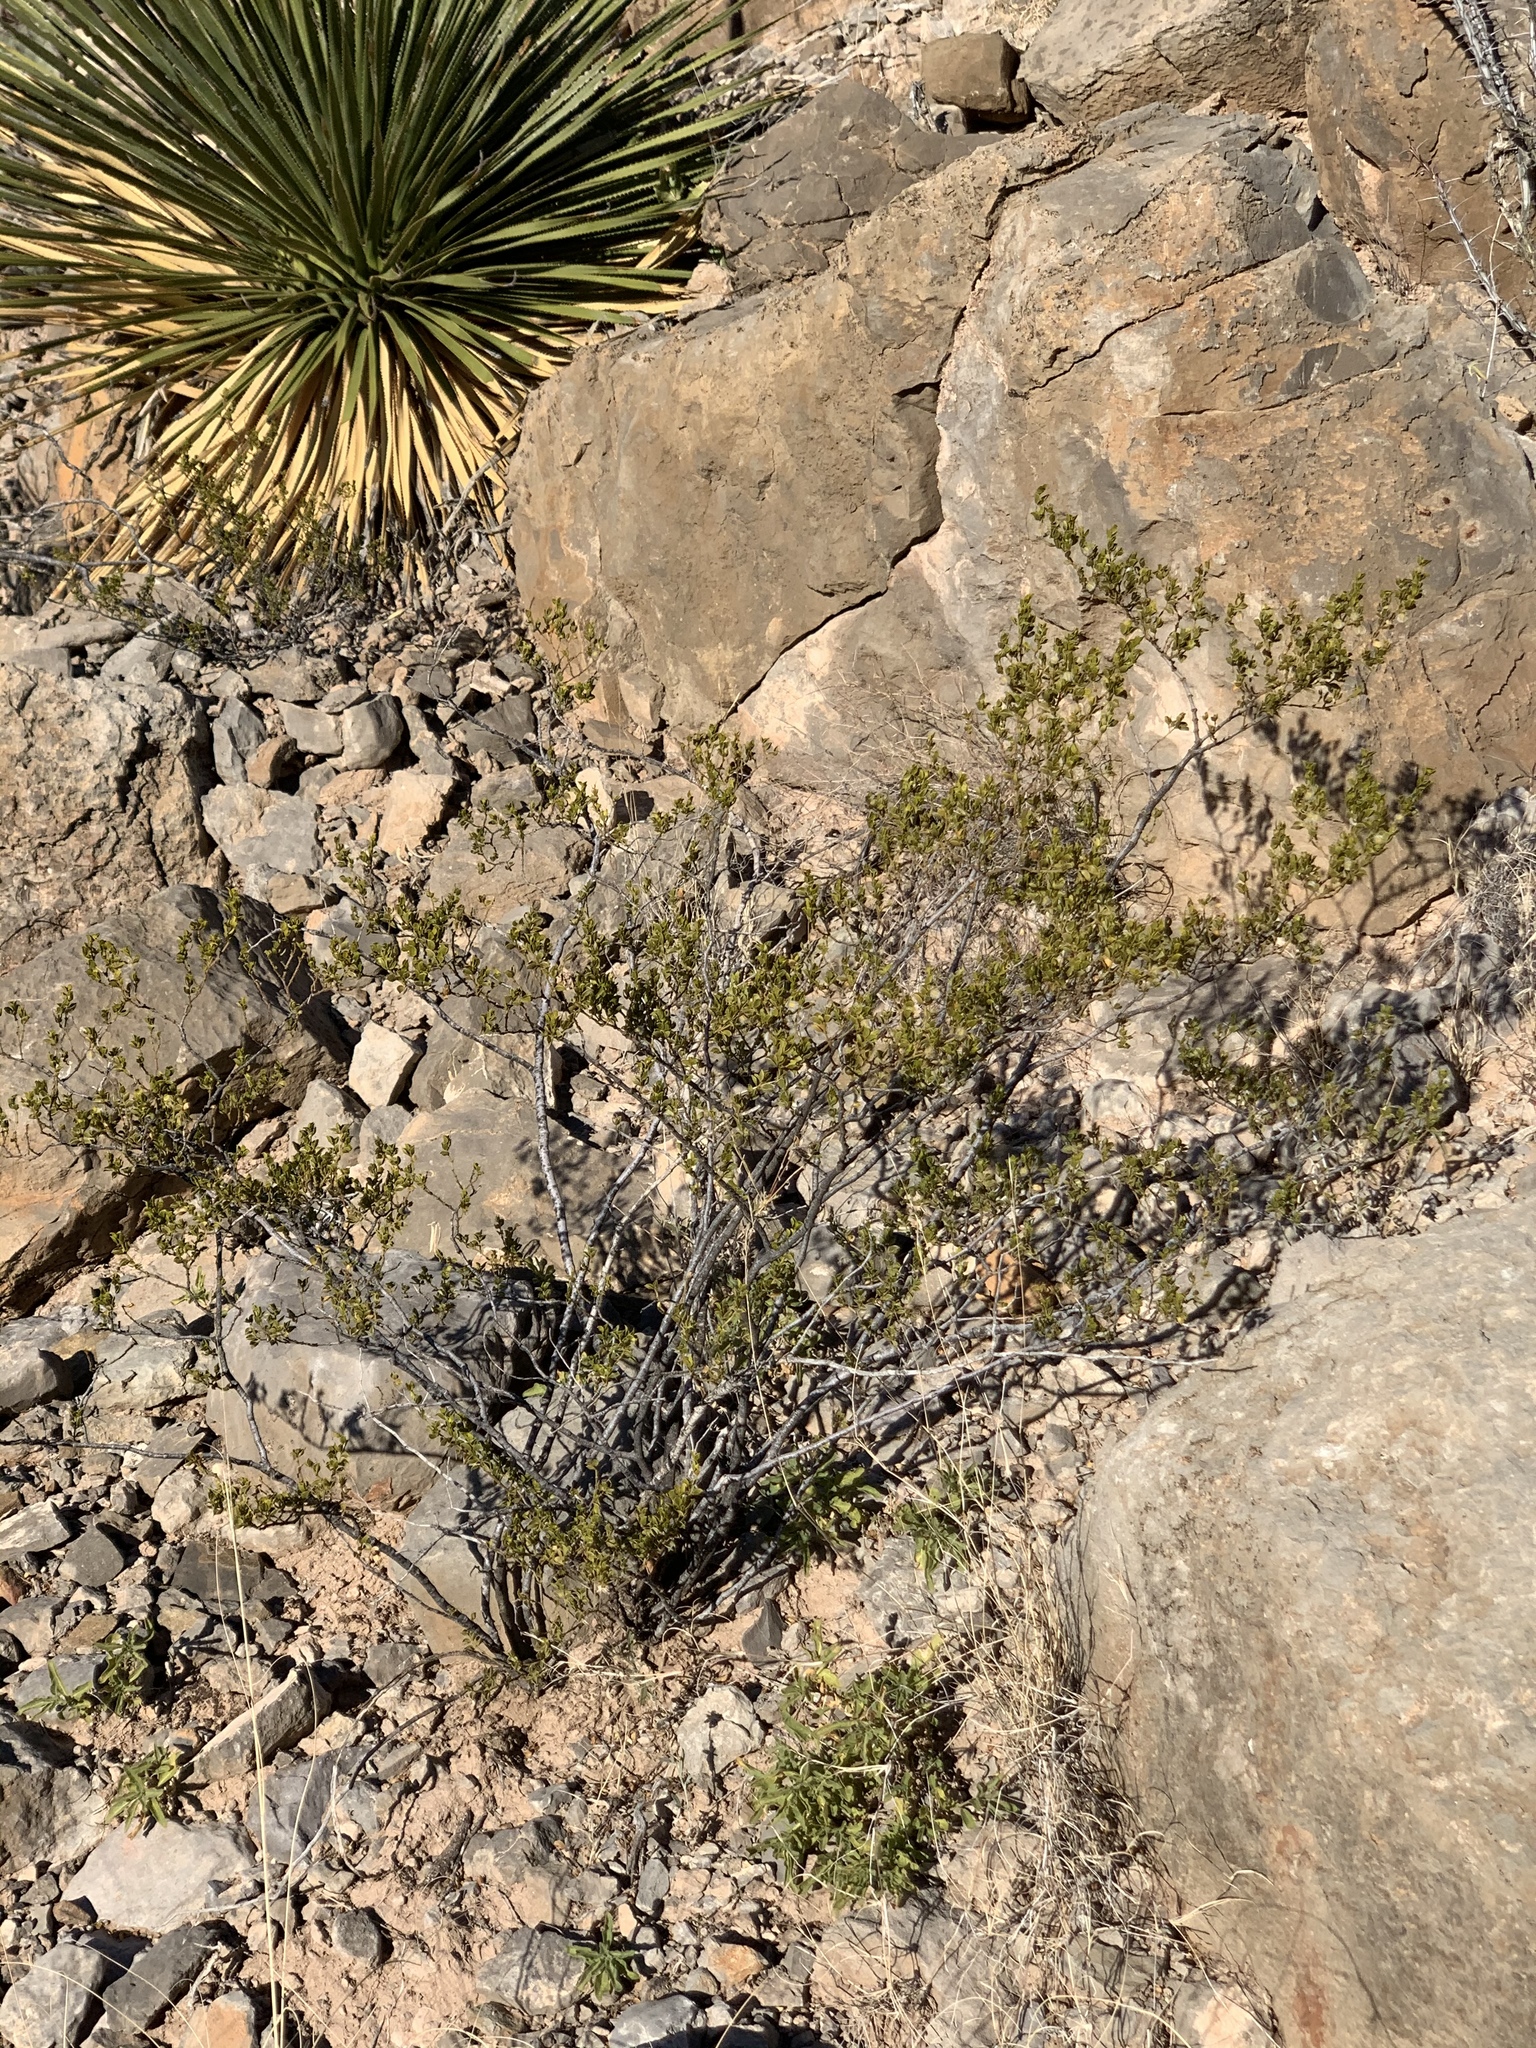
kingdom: Plantae
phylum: Tracheophyta
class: Magnoliopsida
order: Zygophyllales
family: Zygophyllaceae
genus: Larrea
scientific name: Larrea tridentata
